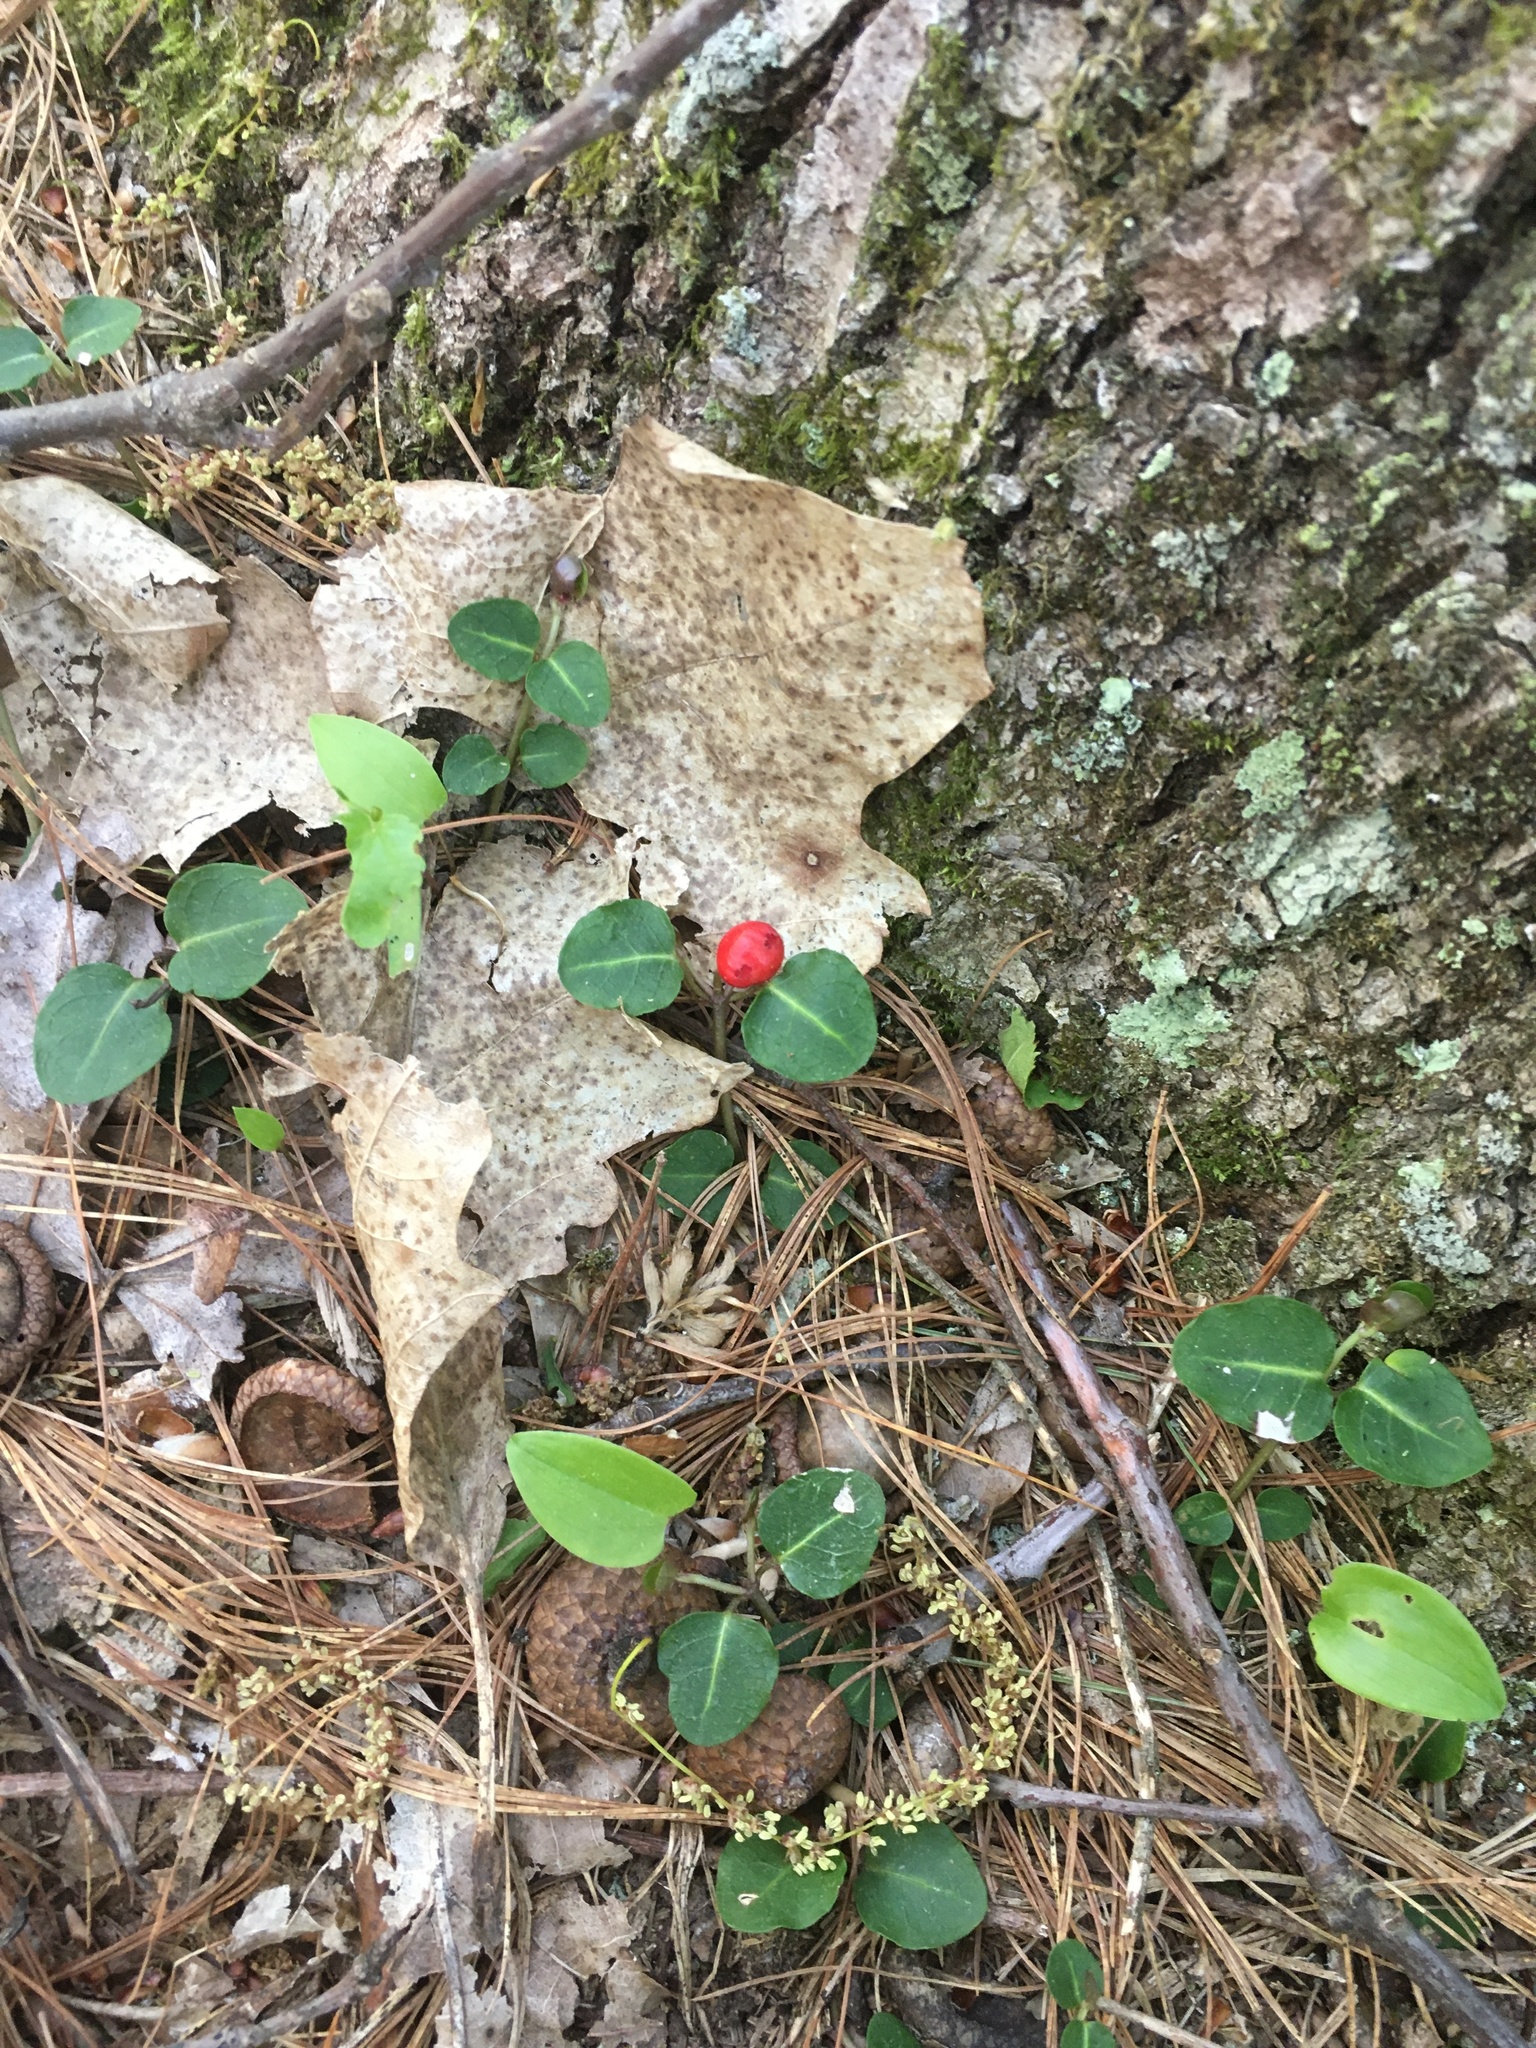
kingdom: Plantae
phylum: Tracheophyta
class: Magnoliopsida
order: Gentianales
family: Rubiaceae
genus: Mitchella
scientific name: Mitchella repens
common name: Partridge-berry
